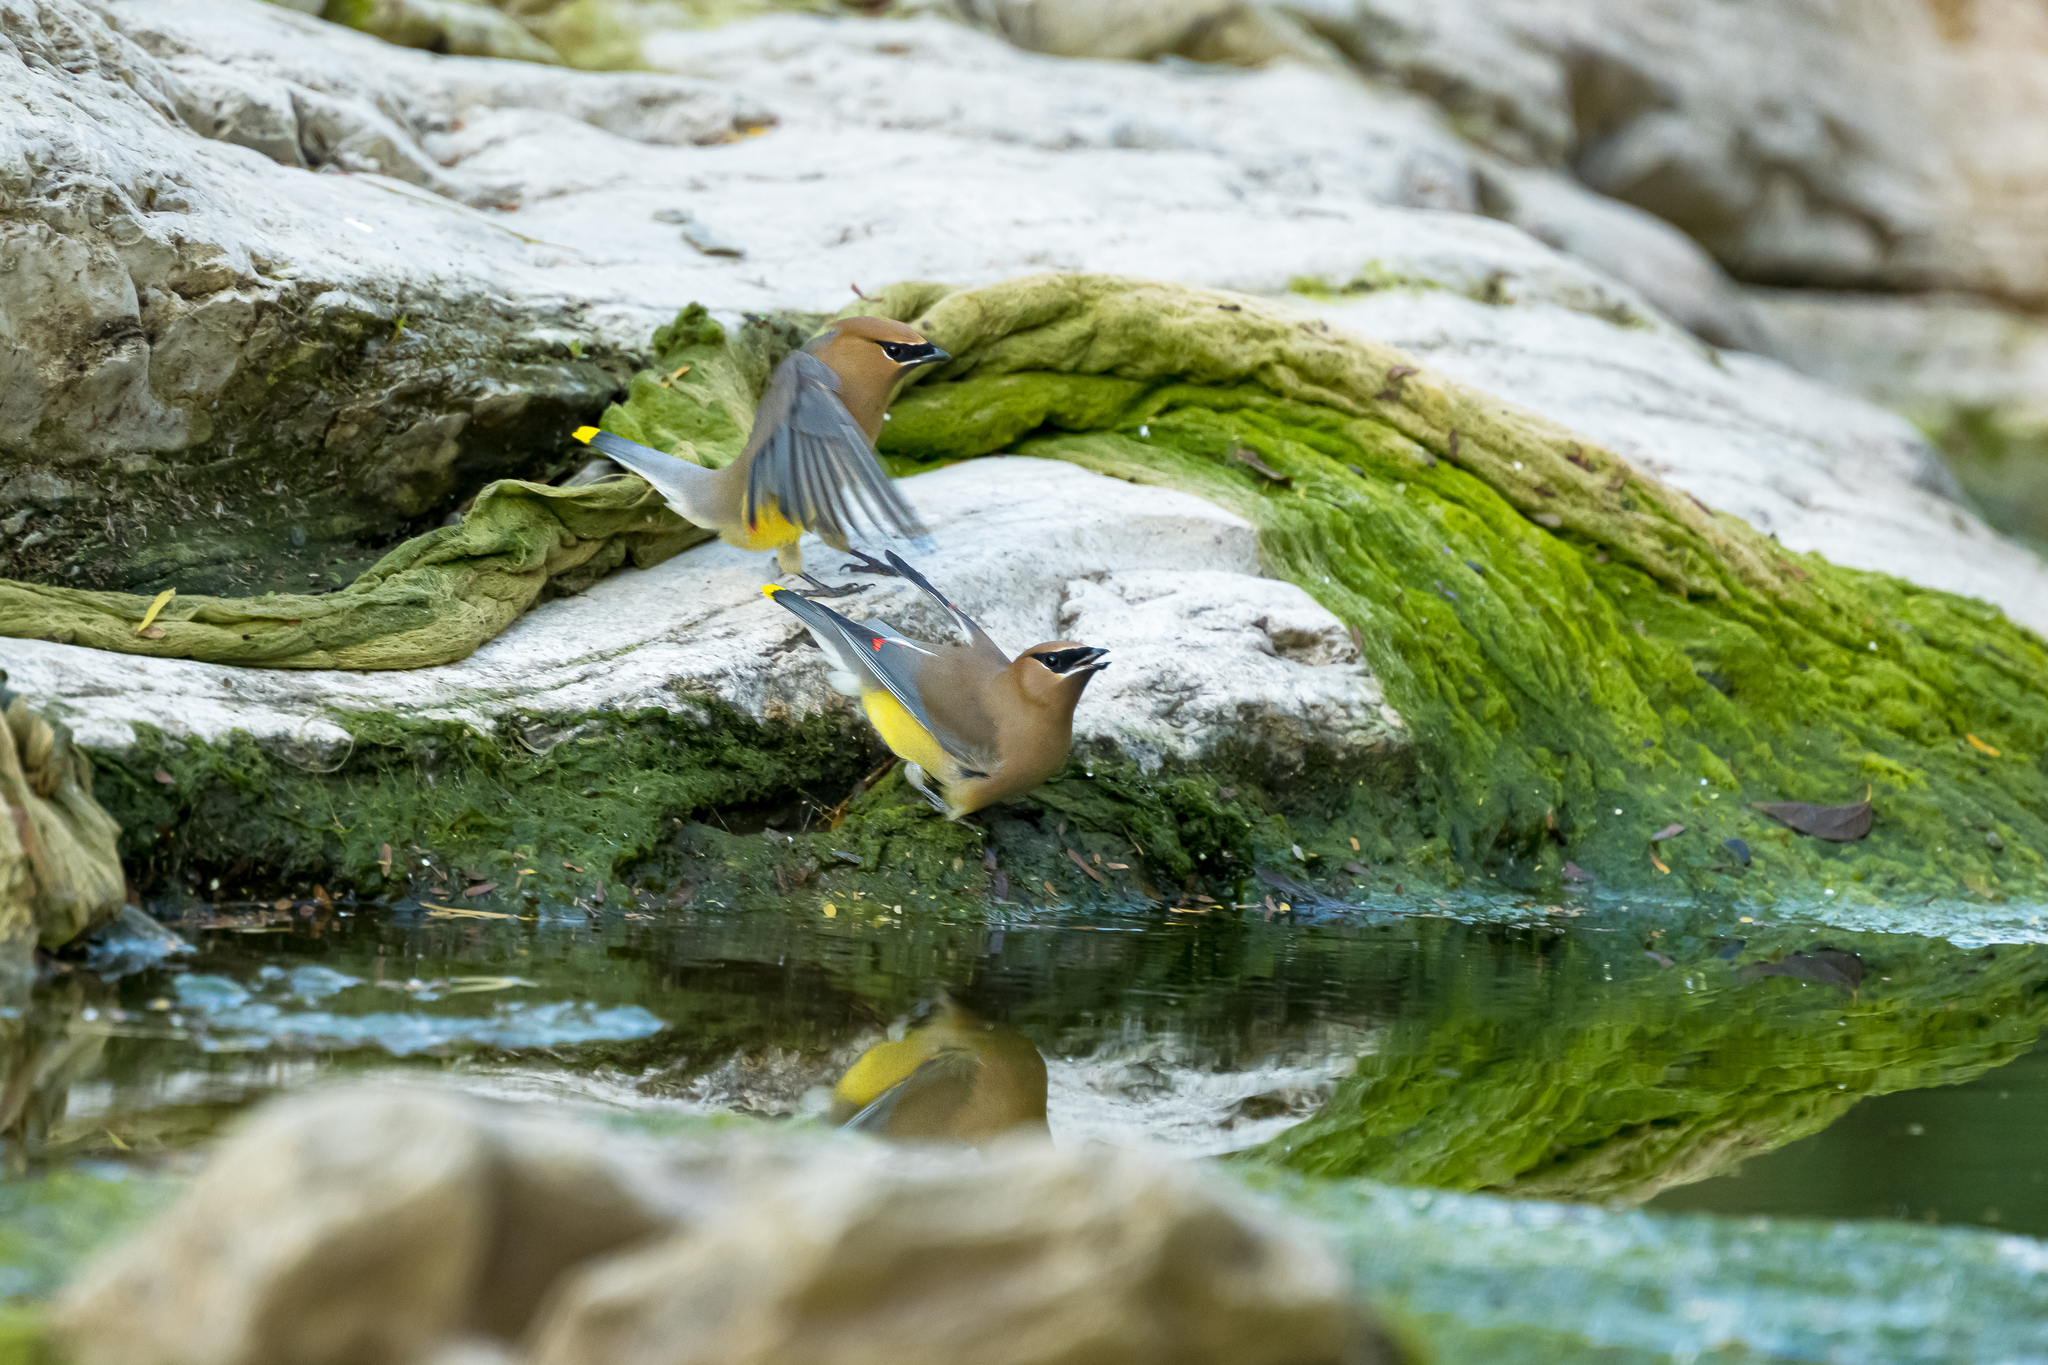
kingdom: Animalia
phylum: Chordata
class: Aves
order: Passeriformes
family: Bombycillidae
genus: Bombycilla
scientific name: Bombycilla cedrorum
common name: Cedar waxwing
